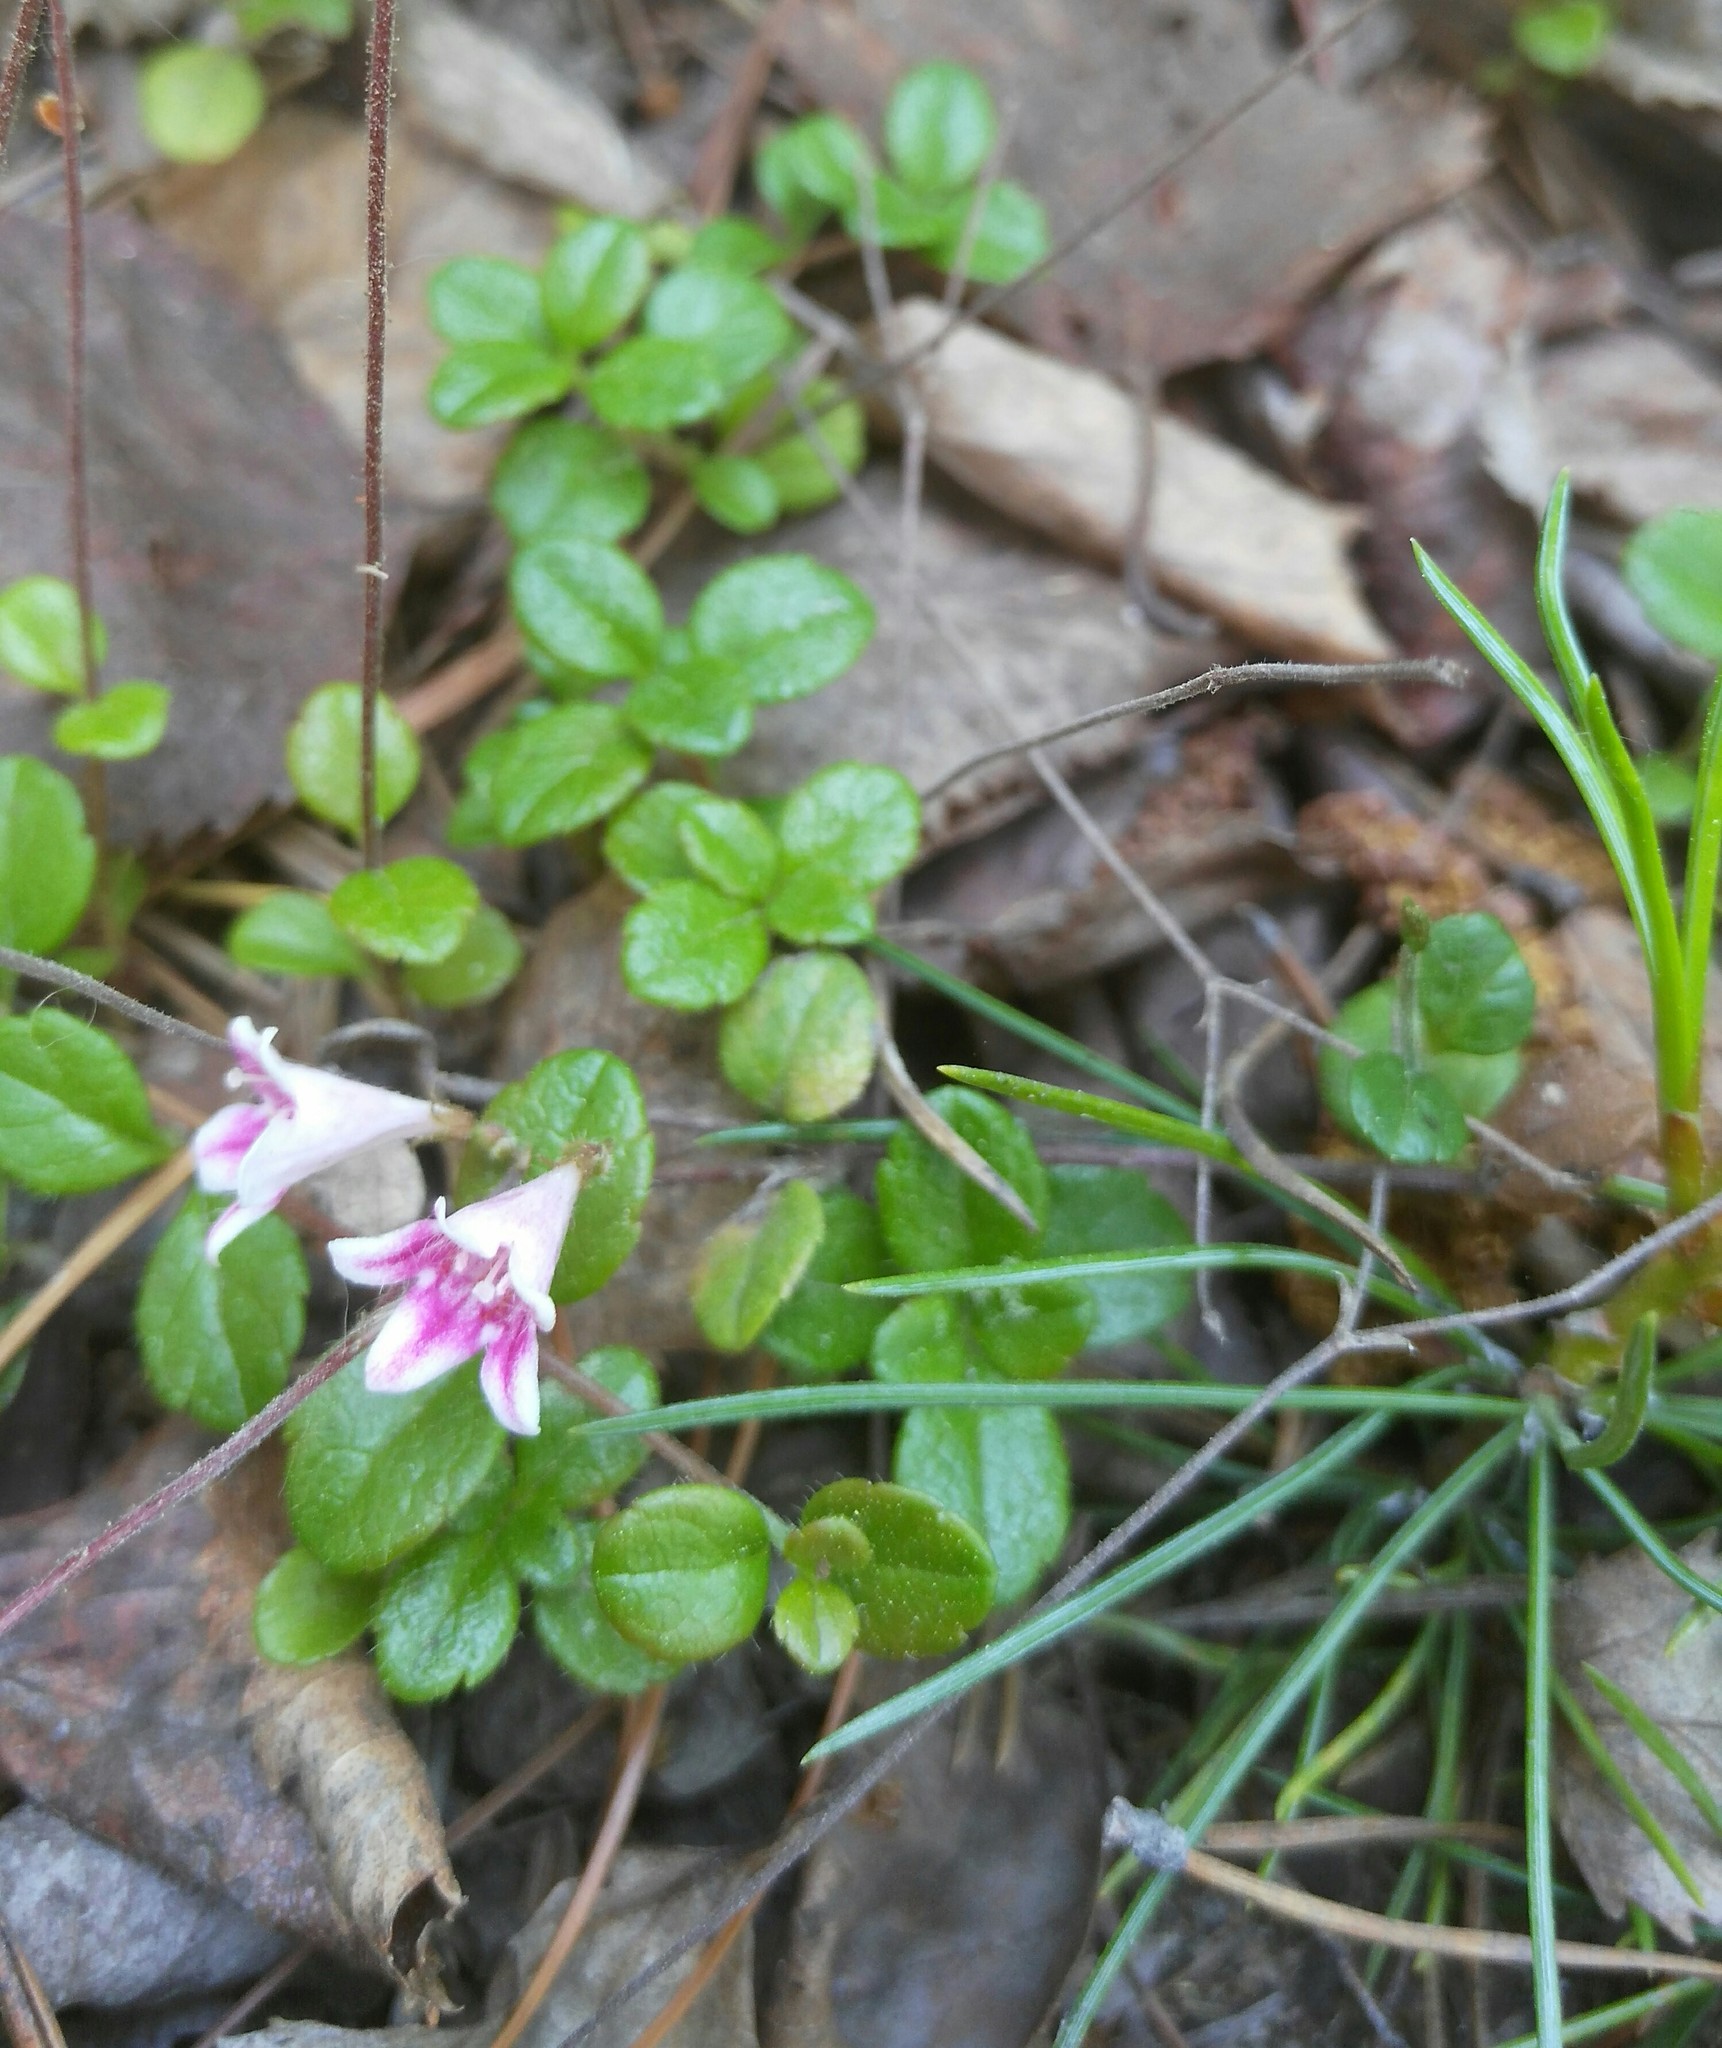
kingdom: Plantae
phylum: Tracheophyta
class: Magnoliopsida
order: Dipsacales
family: Caprifoliaceae
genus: Linnaea
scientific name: Linnaea borealis
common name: Twinflower
